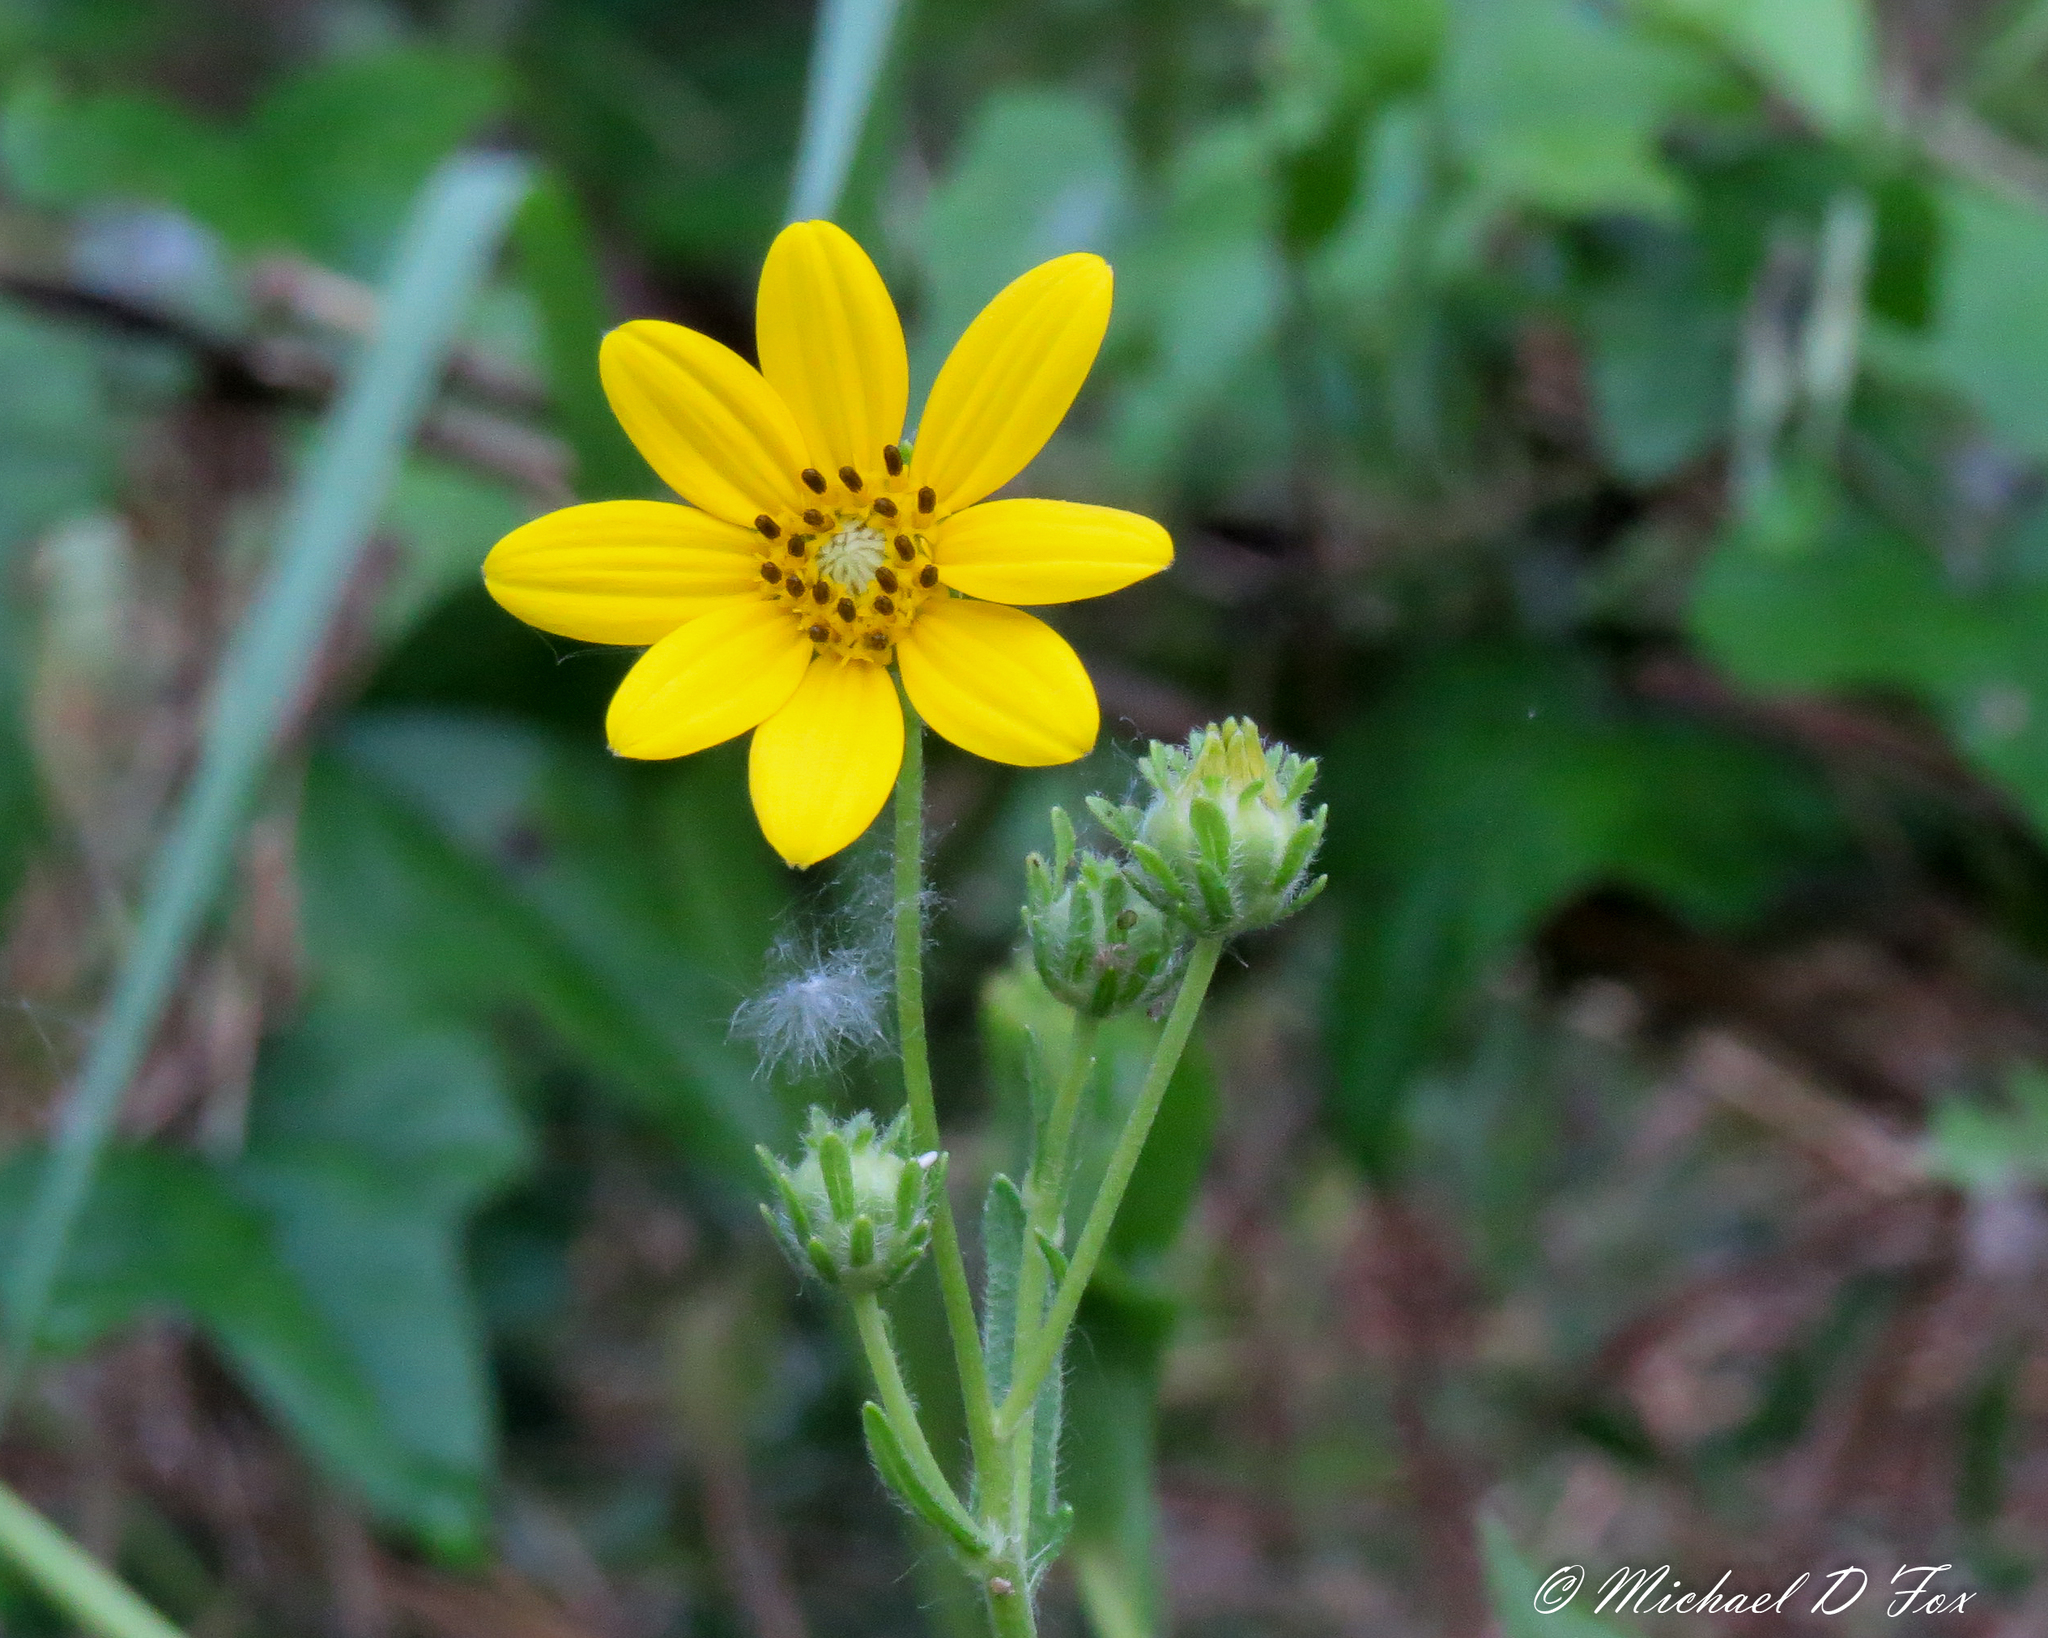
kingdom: Plantae
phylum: Tracheophyta
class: Magnoliopsida
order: Asterales
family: Asteraceae
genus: Engelmannia
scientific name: Engelmannia peristenia
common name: Engelmann's daisy
